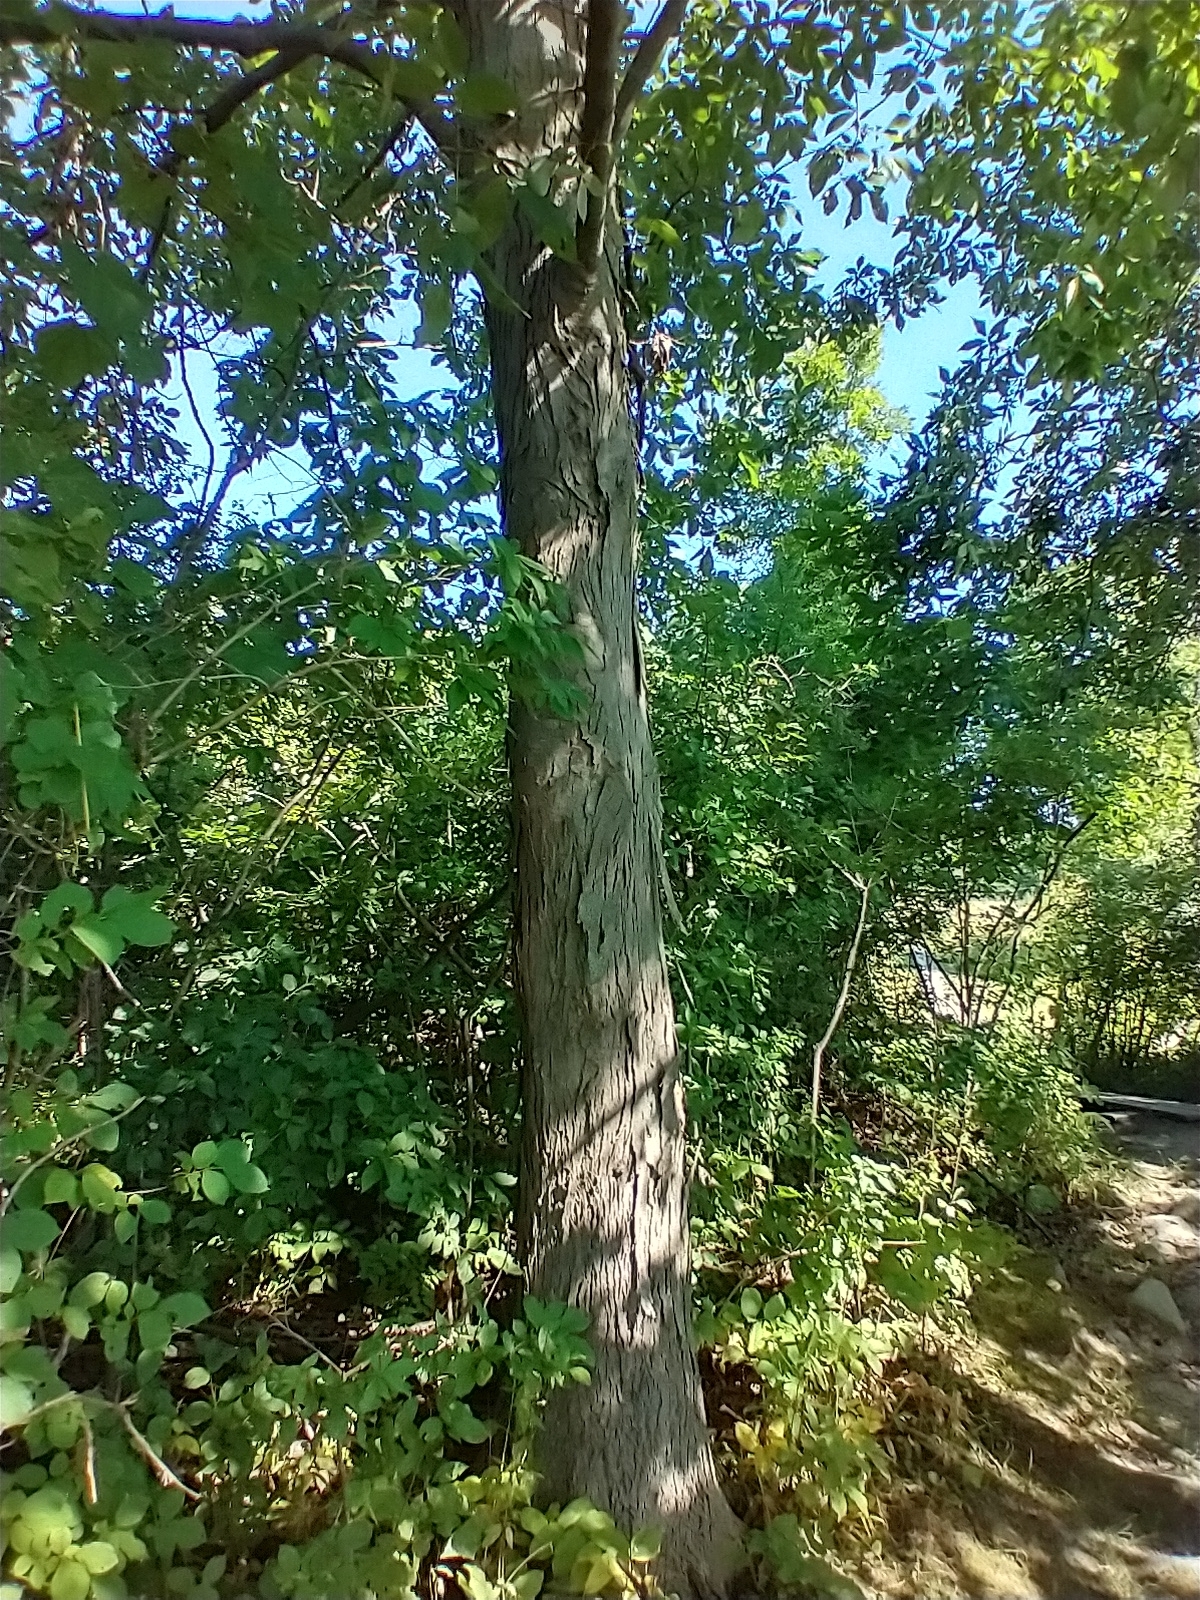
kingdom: Plantae
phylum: Tracheophyta
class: Magnoliopsida
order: Fagales
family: Juglandaceae
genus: Carya
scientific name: Carya ovata
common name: Shagbark hickory
